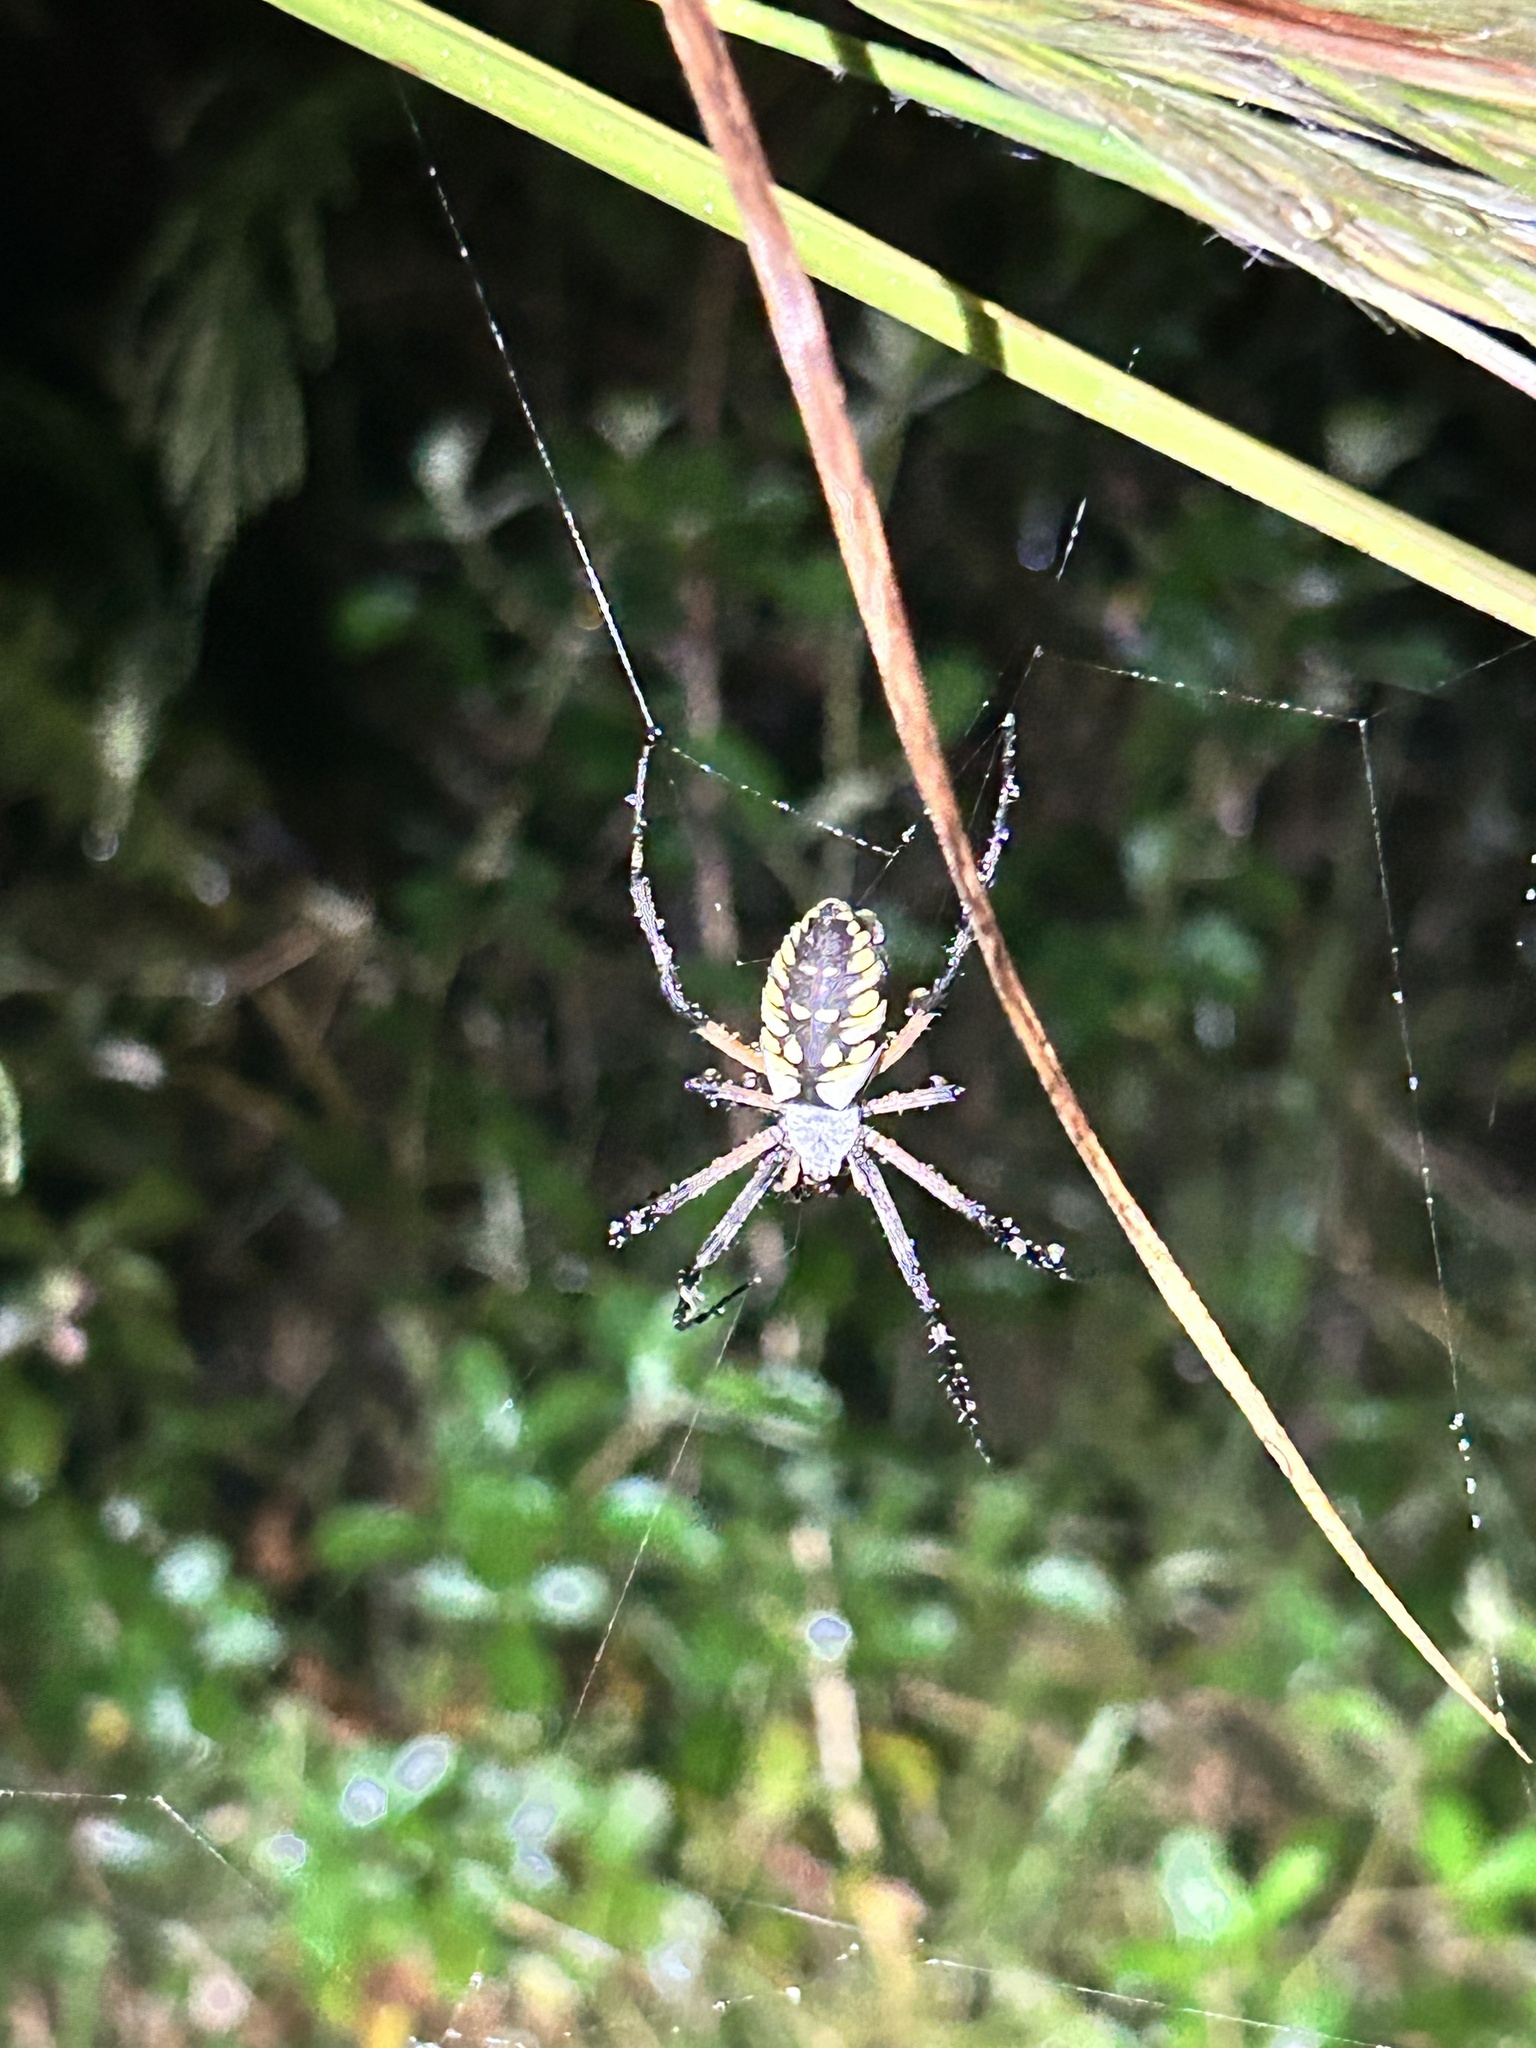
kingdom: Animalia
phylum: Arthropoda
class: Arachnida
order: Araneae
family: Araneidae
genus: Argiope
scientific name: Argiope aurantia
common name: Orb weavers
